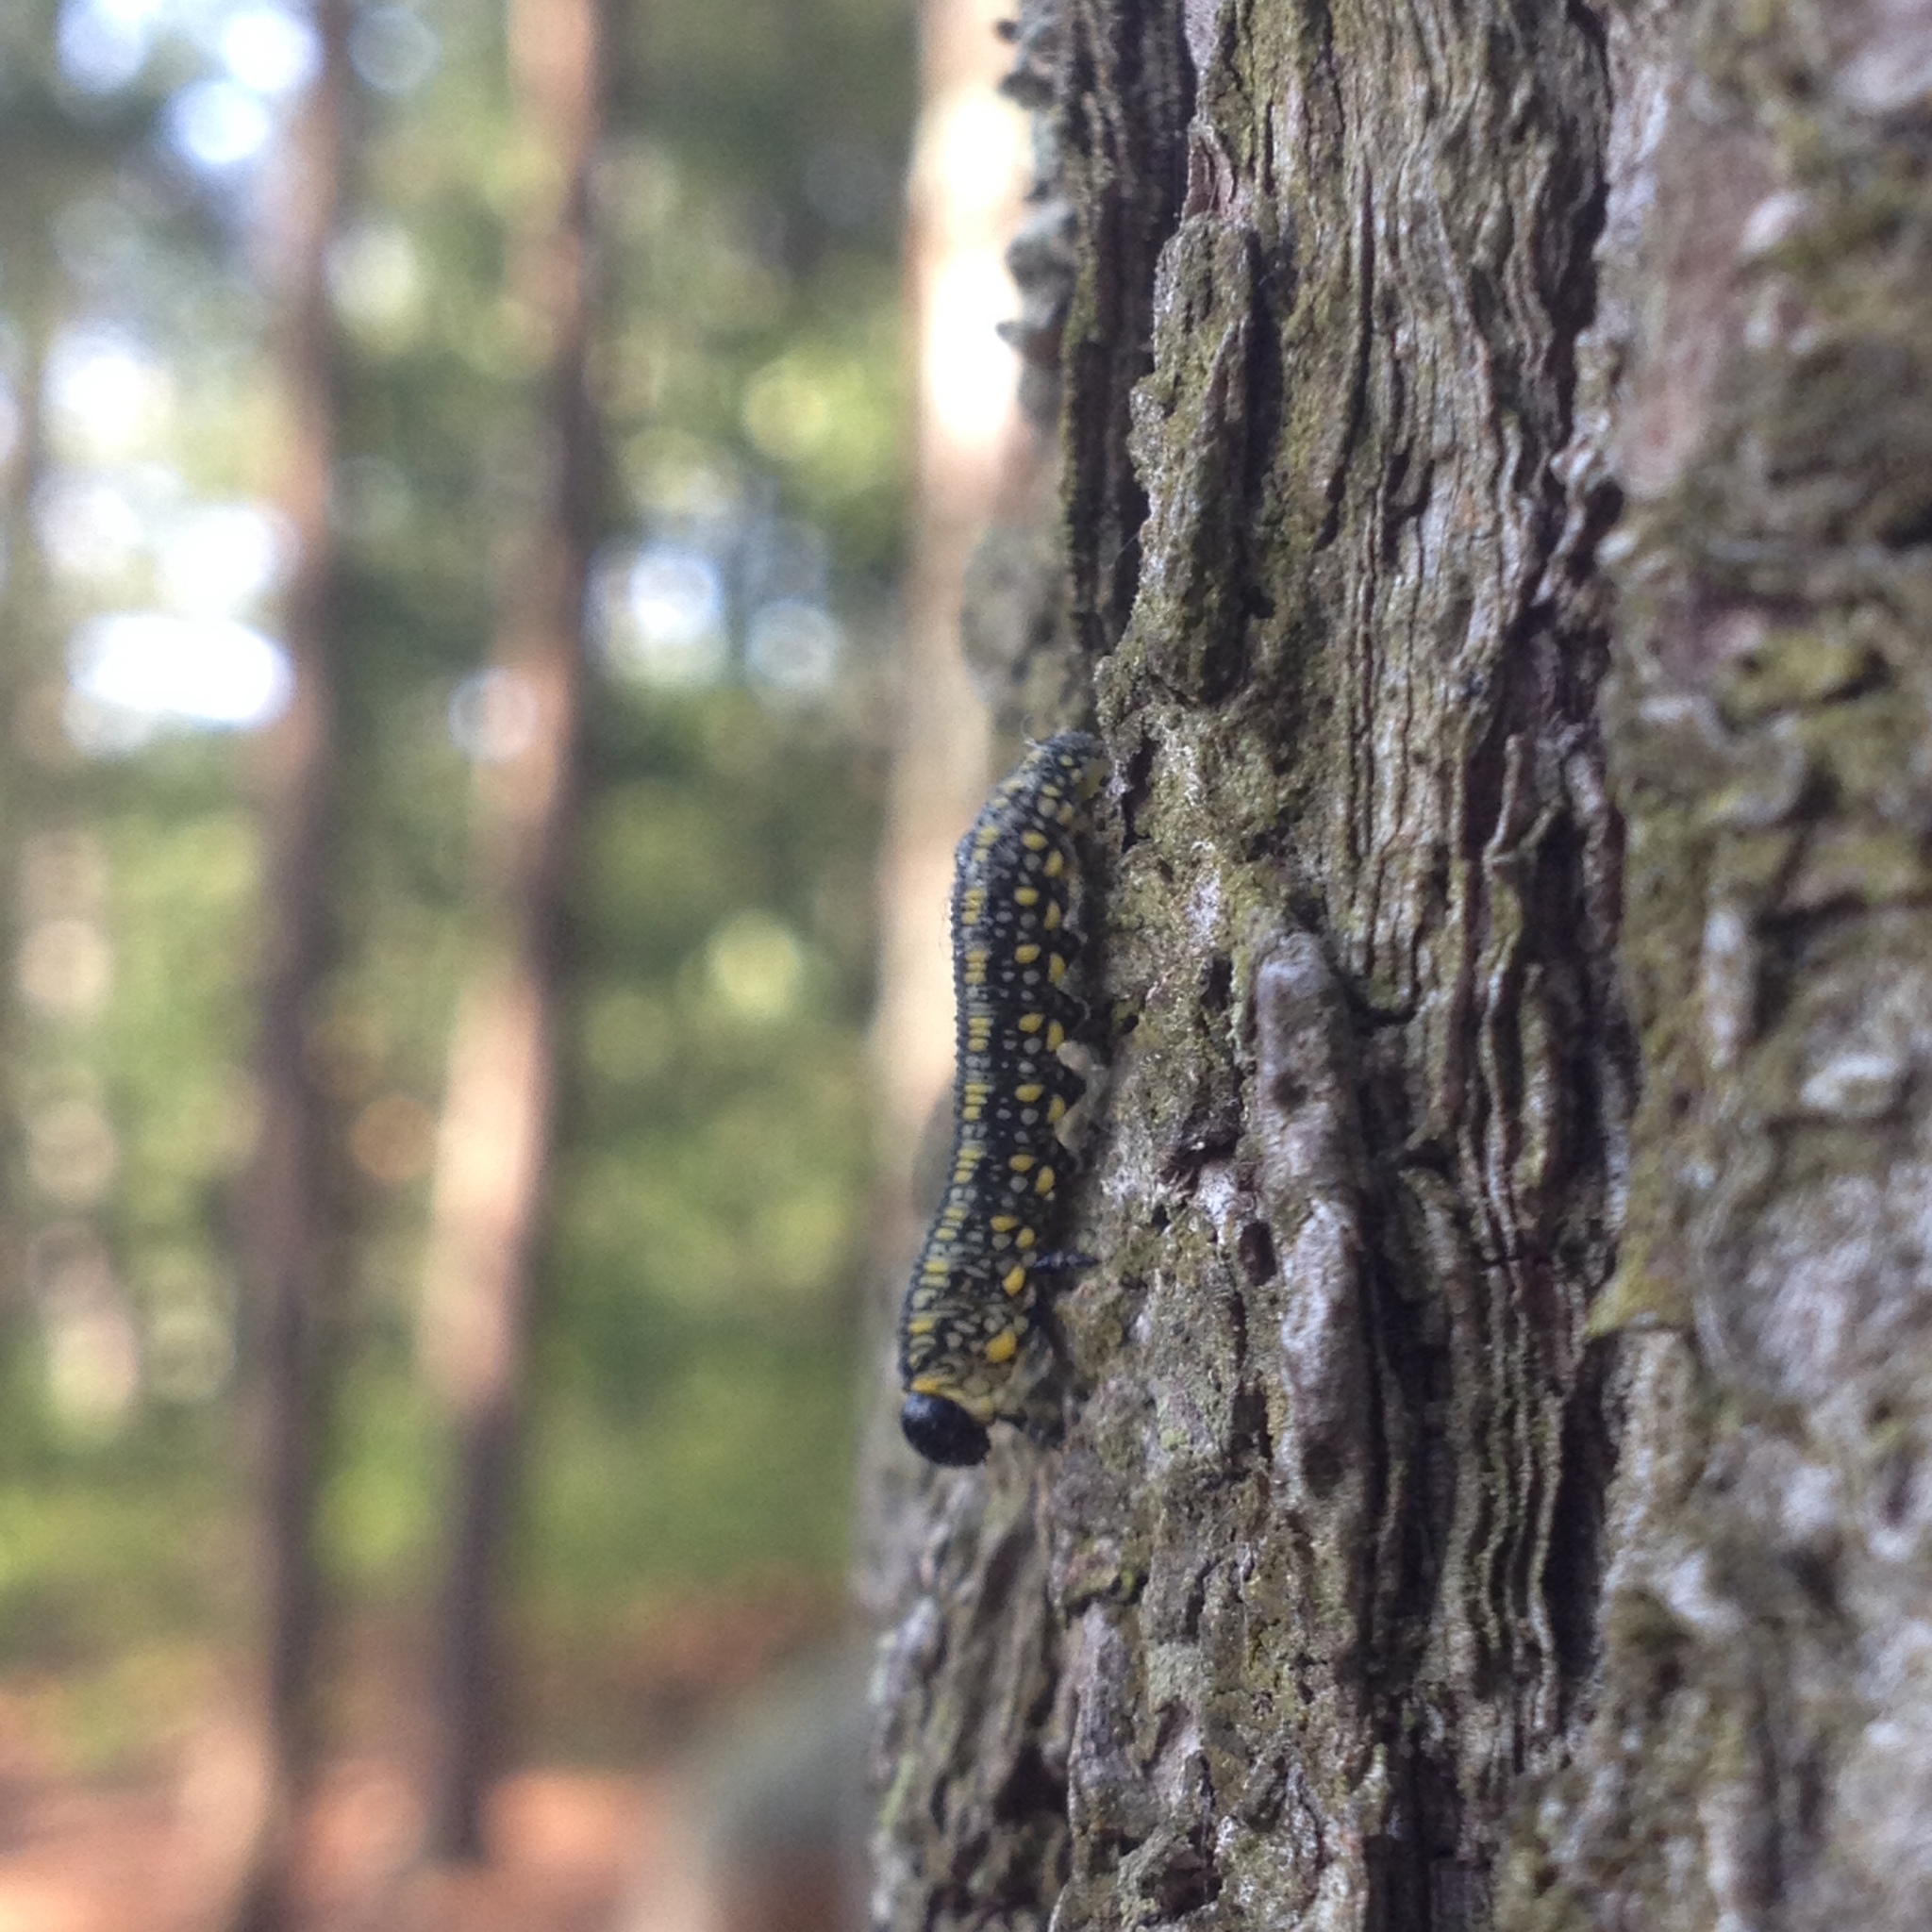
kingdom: Animalia
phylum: Arthropoda
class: Insecta
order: Hymenoptera
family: Diprionidae
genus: Diprion
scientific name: Diprion similis
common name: Pine sawfly
